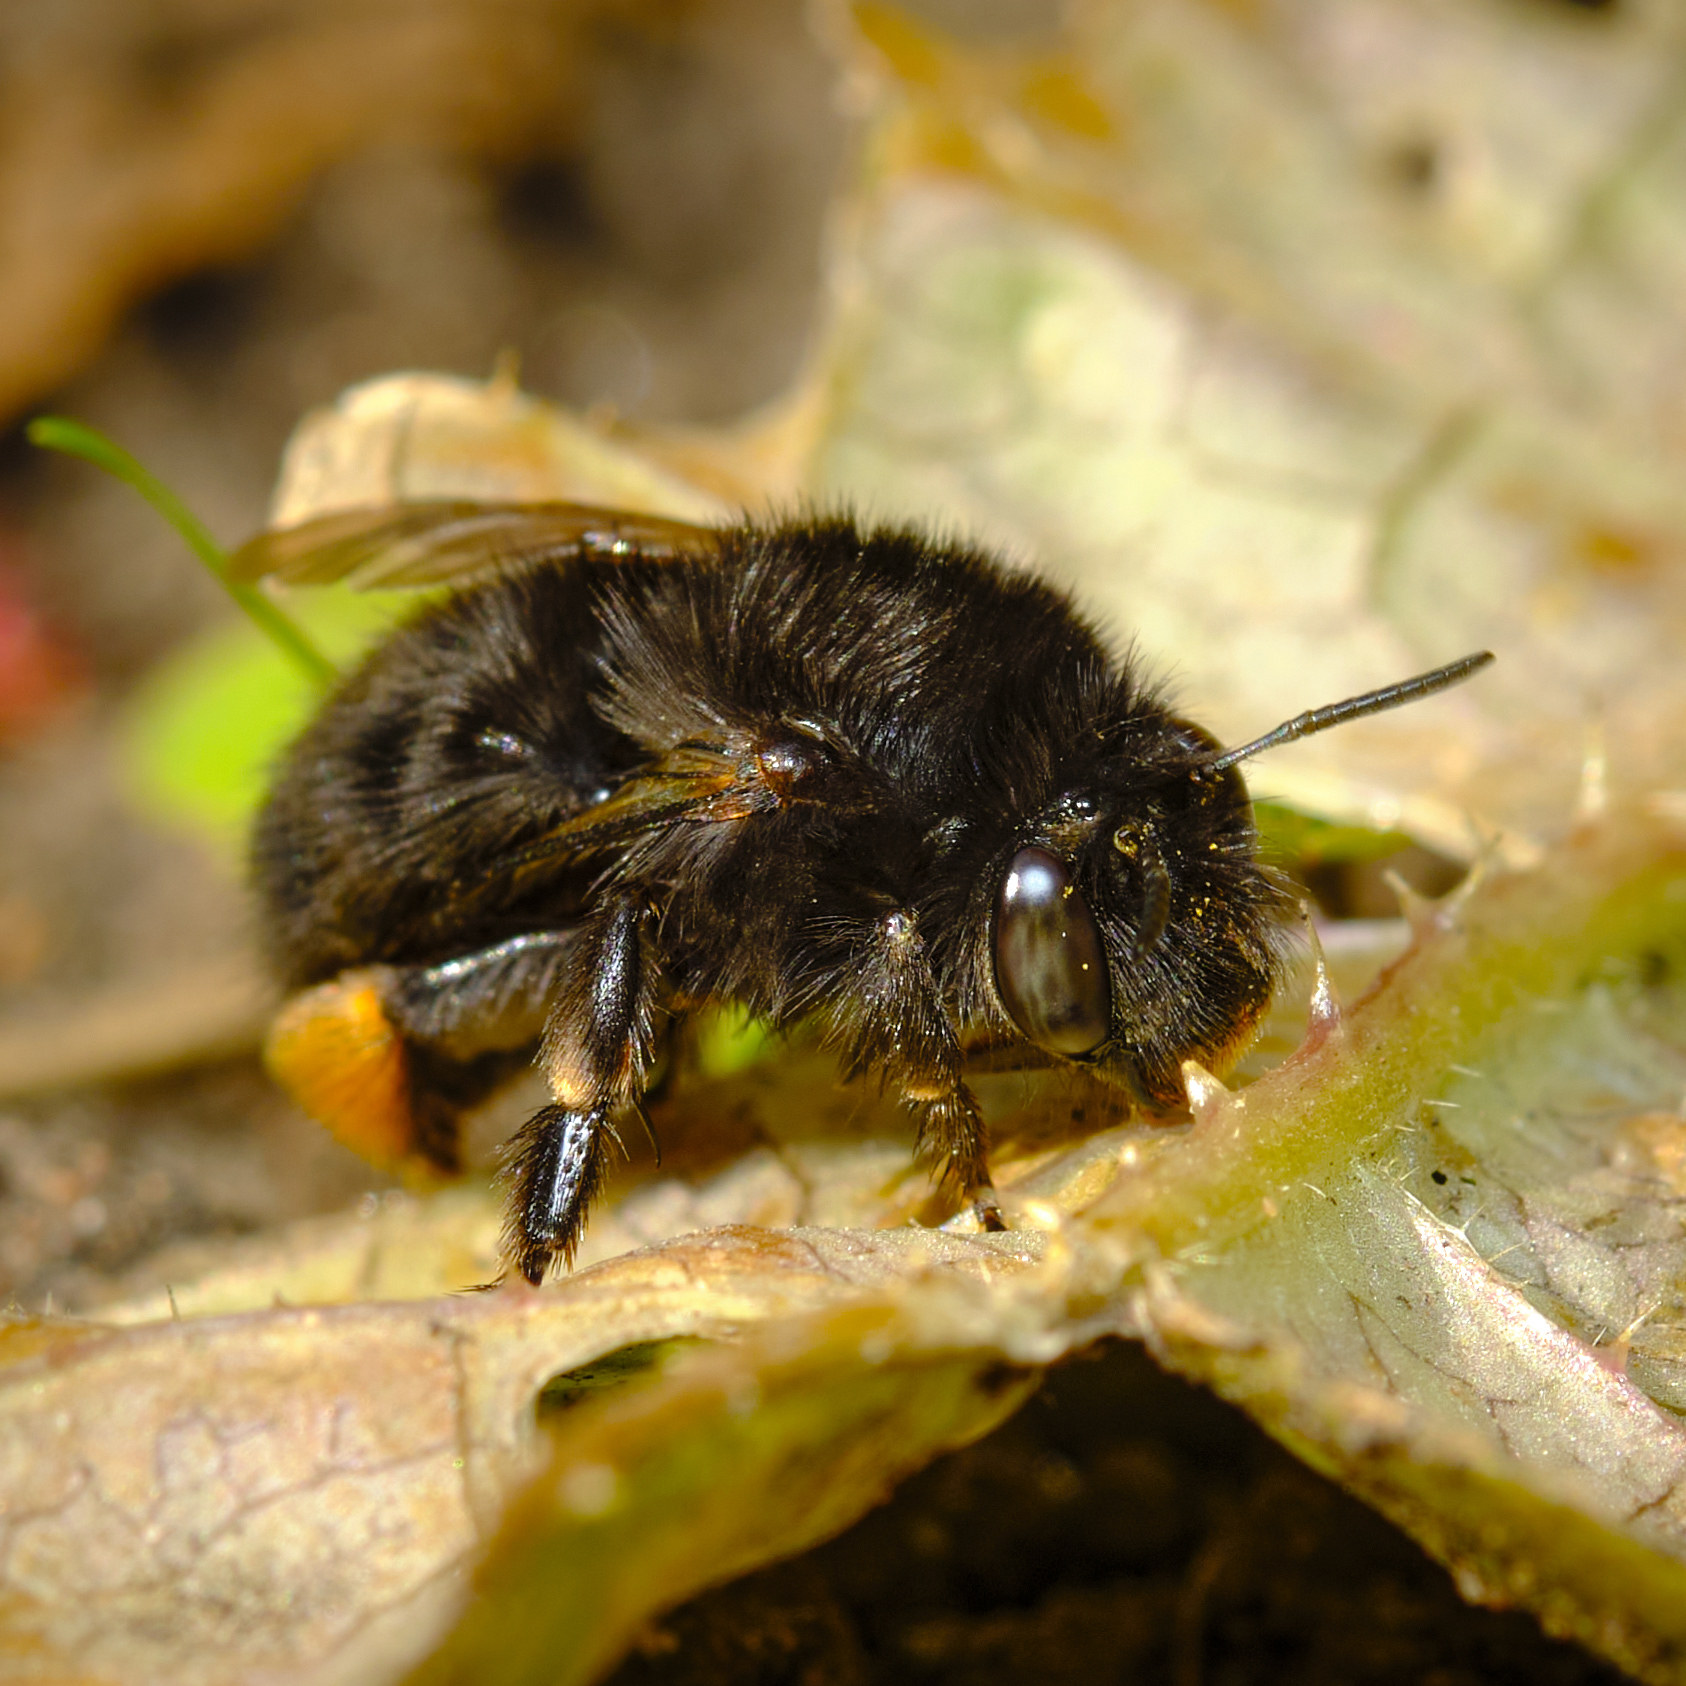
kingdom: Animalia
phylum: Arthropoda
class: Insecta
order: Hymenoptera
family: Apidae
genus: Anthophora
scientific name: Anthophora plumipes
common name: Hairy-footed flower bee
